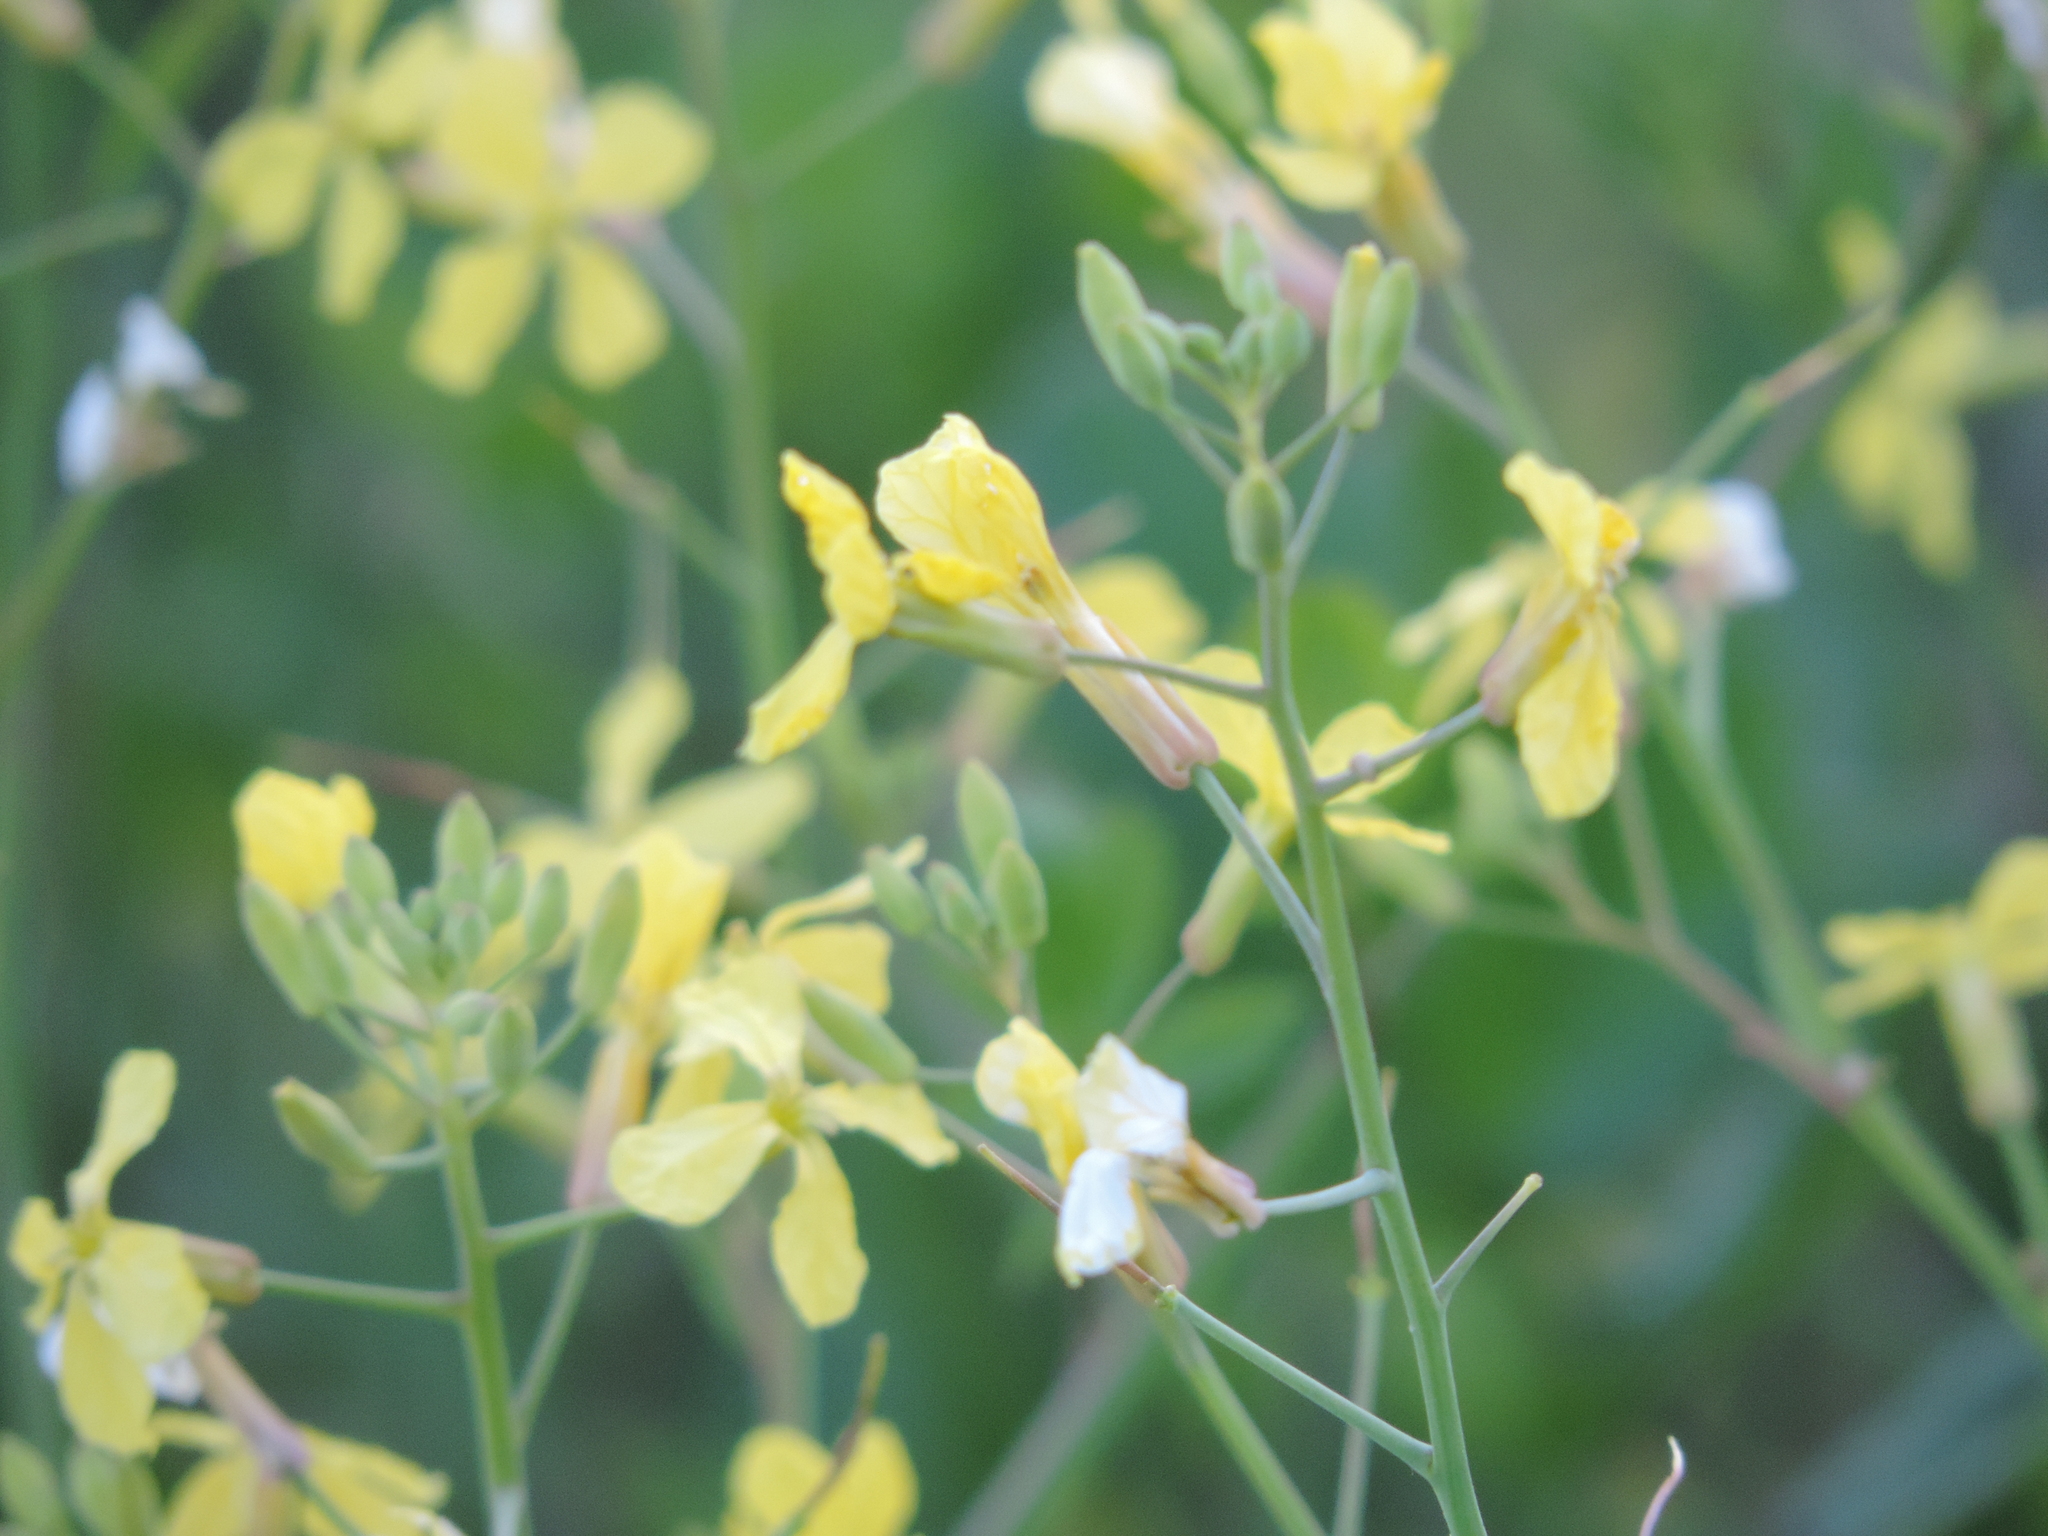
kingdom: Plantae
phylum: Tracheophyta
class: Magnoliopsida
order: Brassicales
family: Brassicaceae
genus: Raphanus
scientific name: Raphanus raphanistrum
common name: Wild radish
